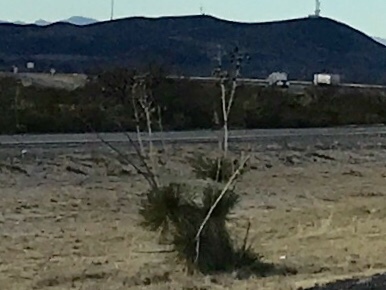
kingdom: Plantae
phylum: Tracheophyta
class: Liliopsida
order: Asparagales
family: Asparagaceae
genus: Yucca
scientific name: Yucca elata
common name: Palmella
